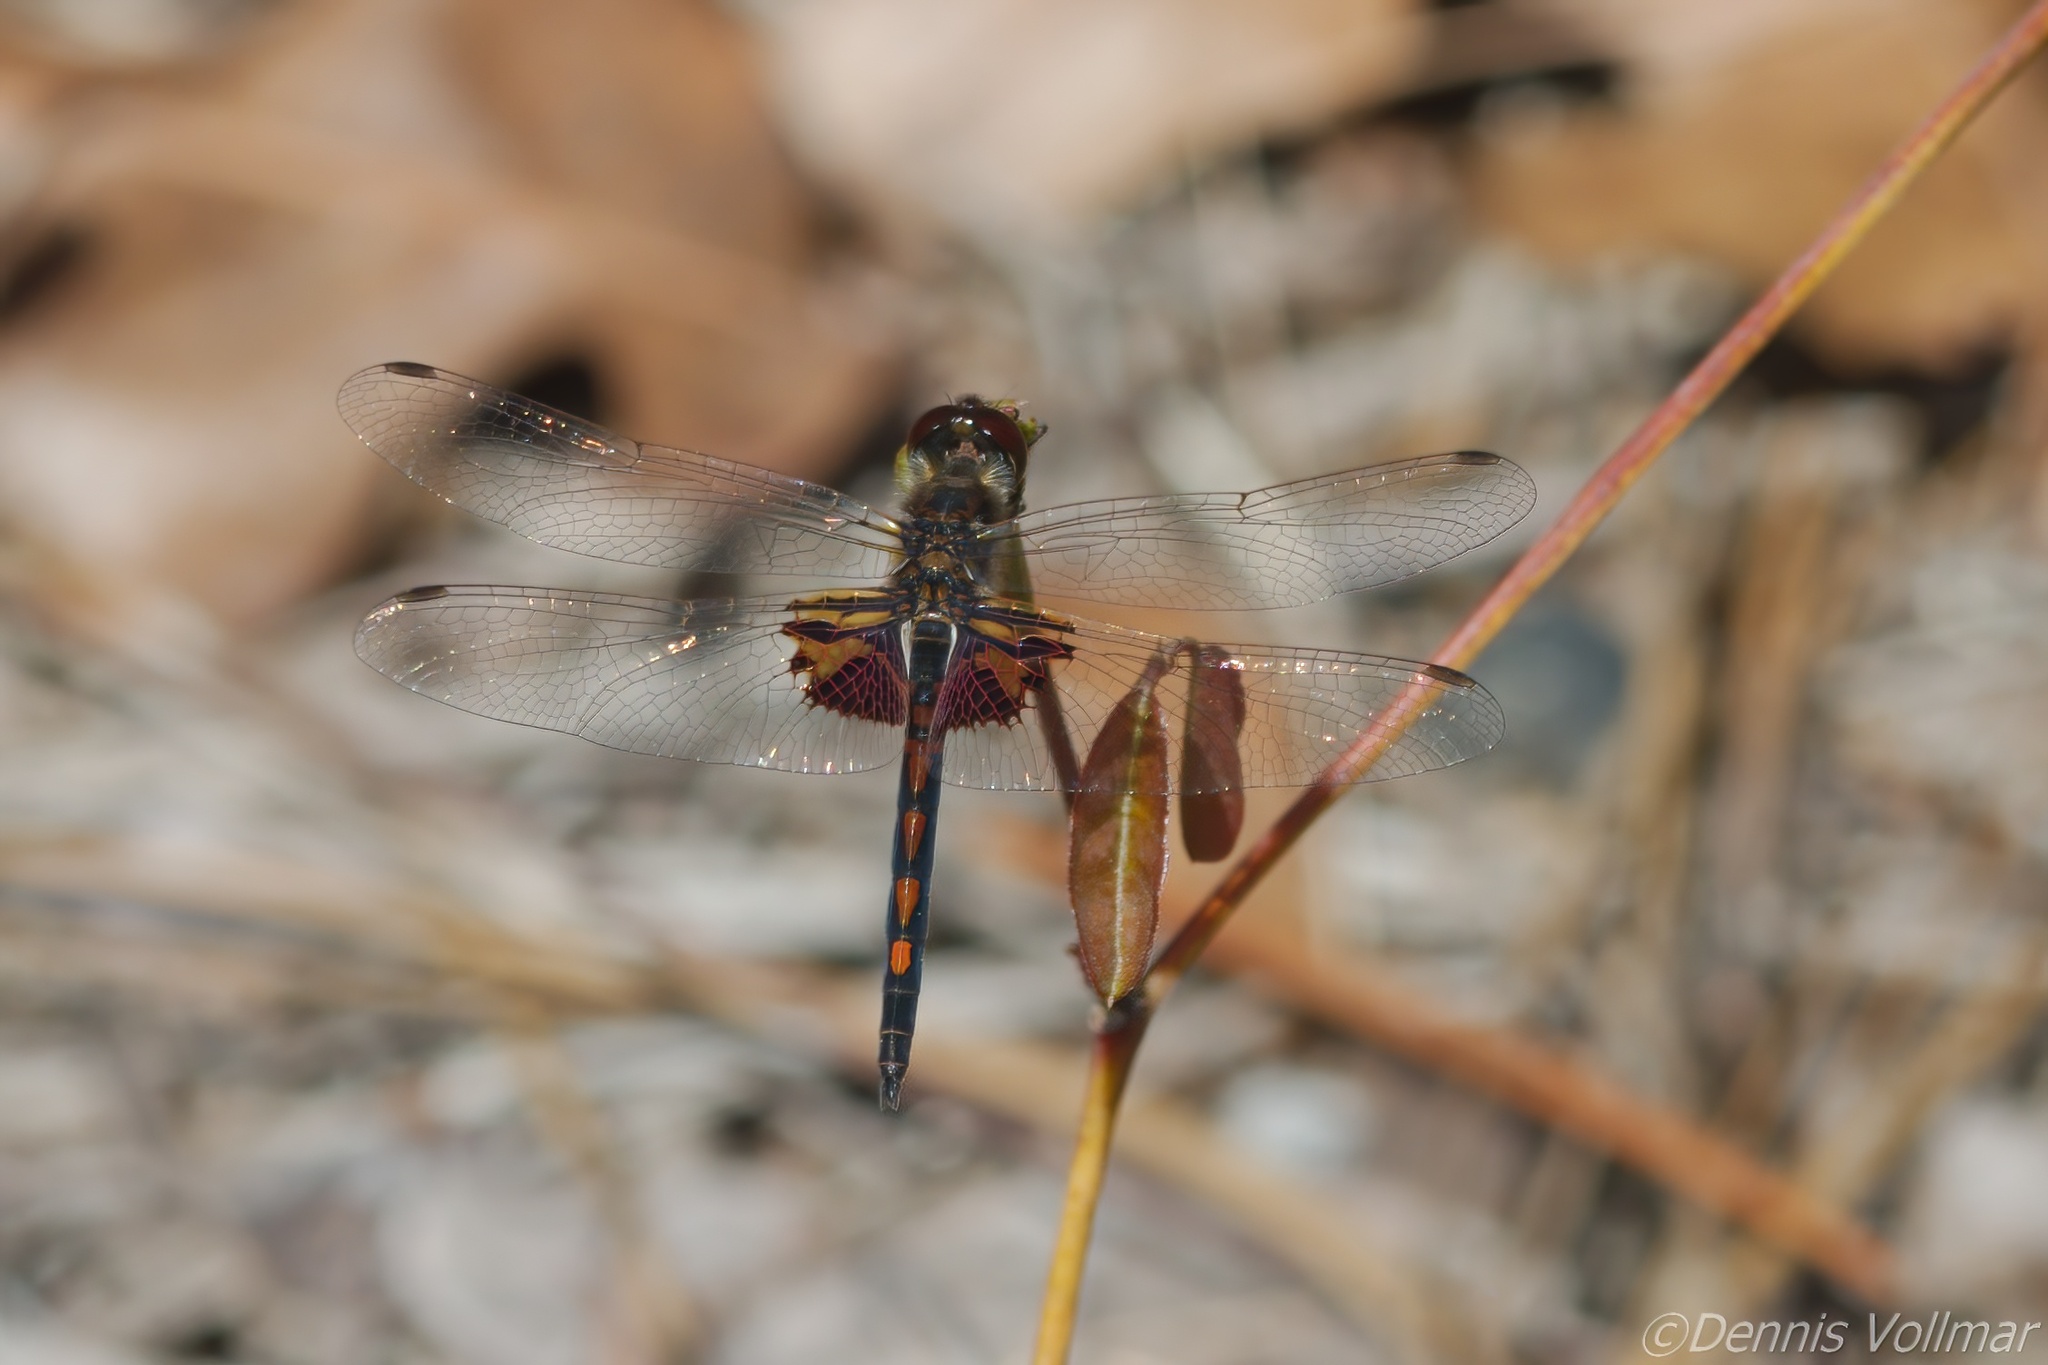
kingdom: Animalia
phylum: Arthropoda
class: Insecta
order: Odonata
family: Libellulidae
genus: Celithemis
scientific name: Celithemis ornata
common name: Ornate pennant
